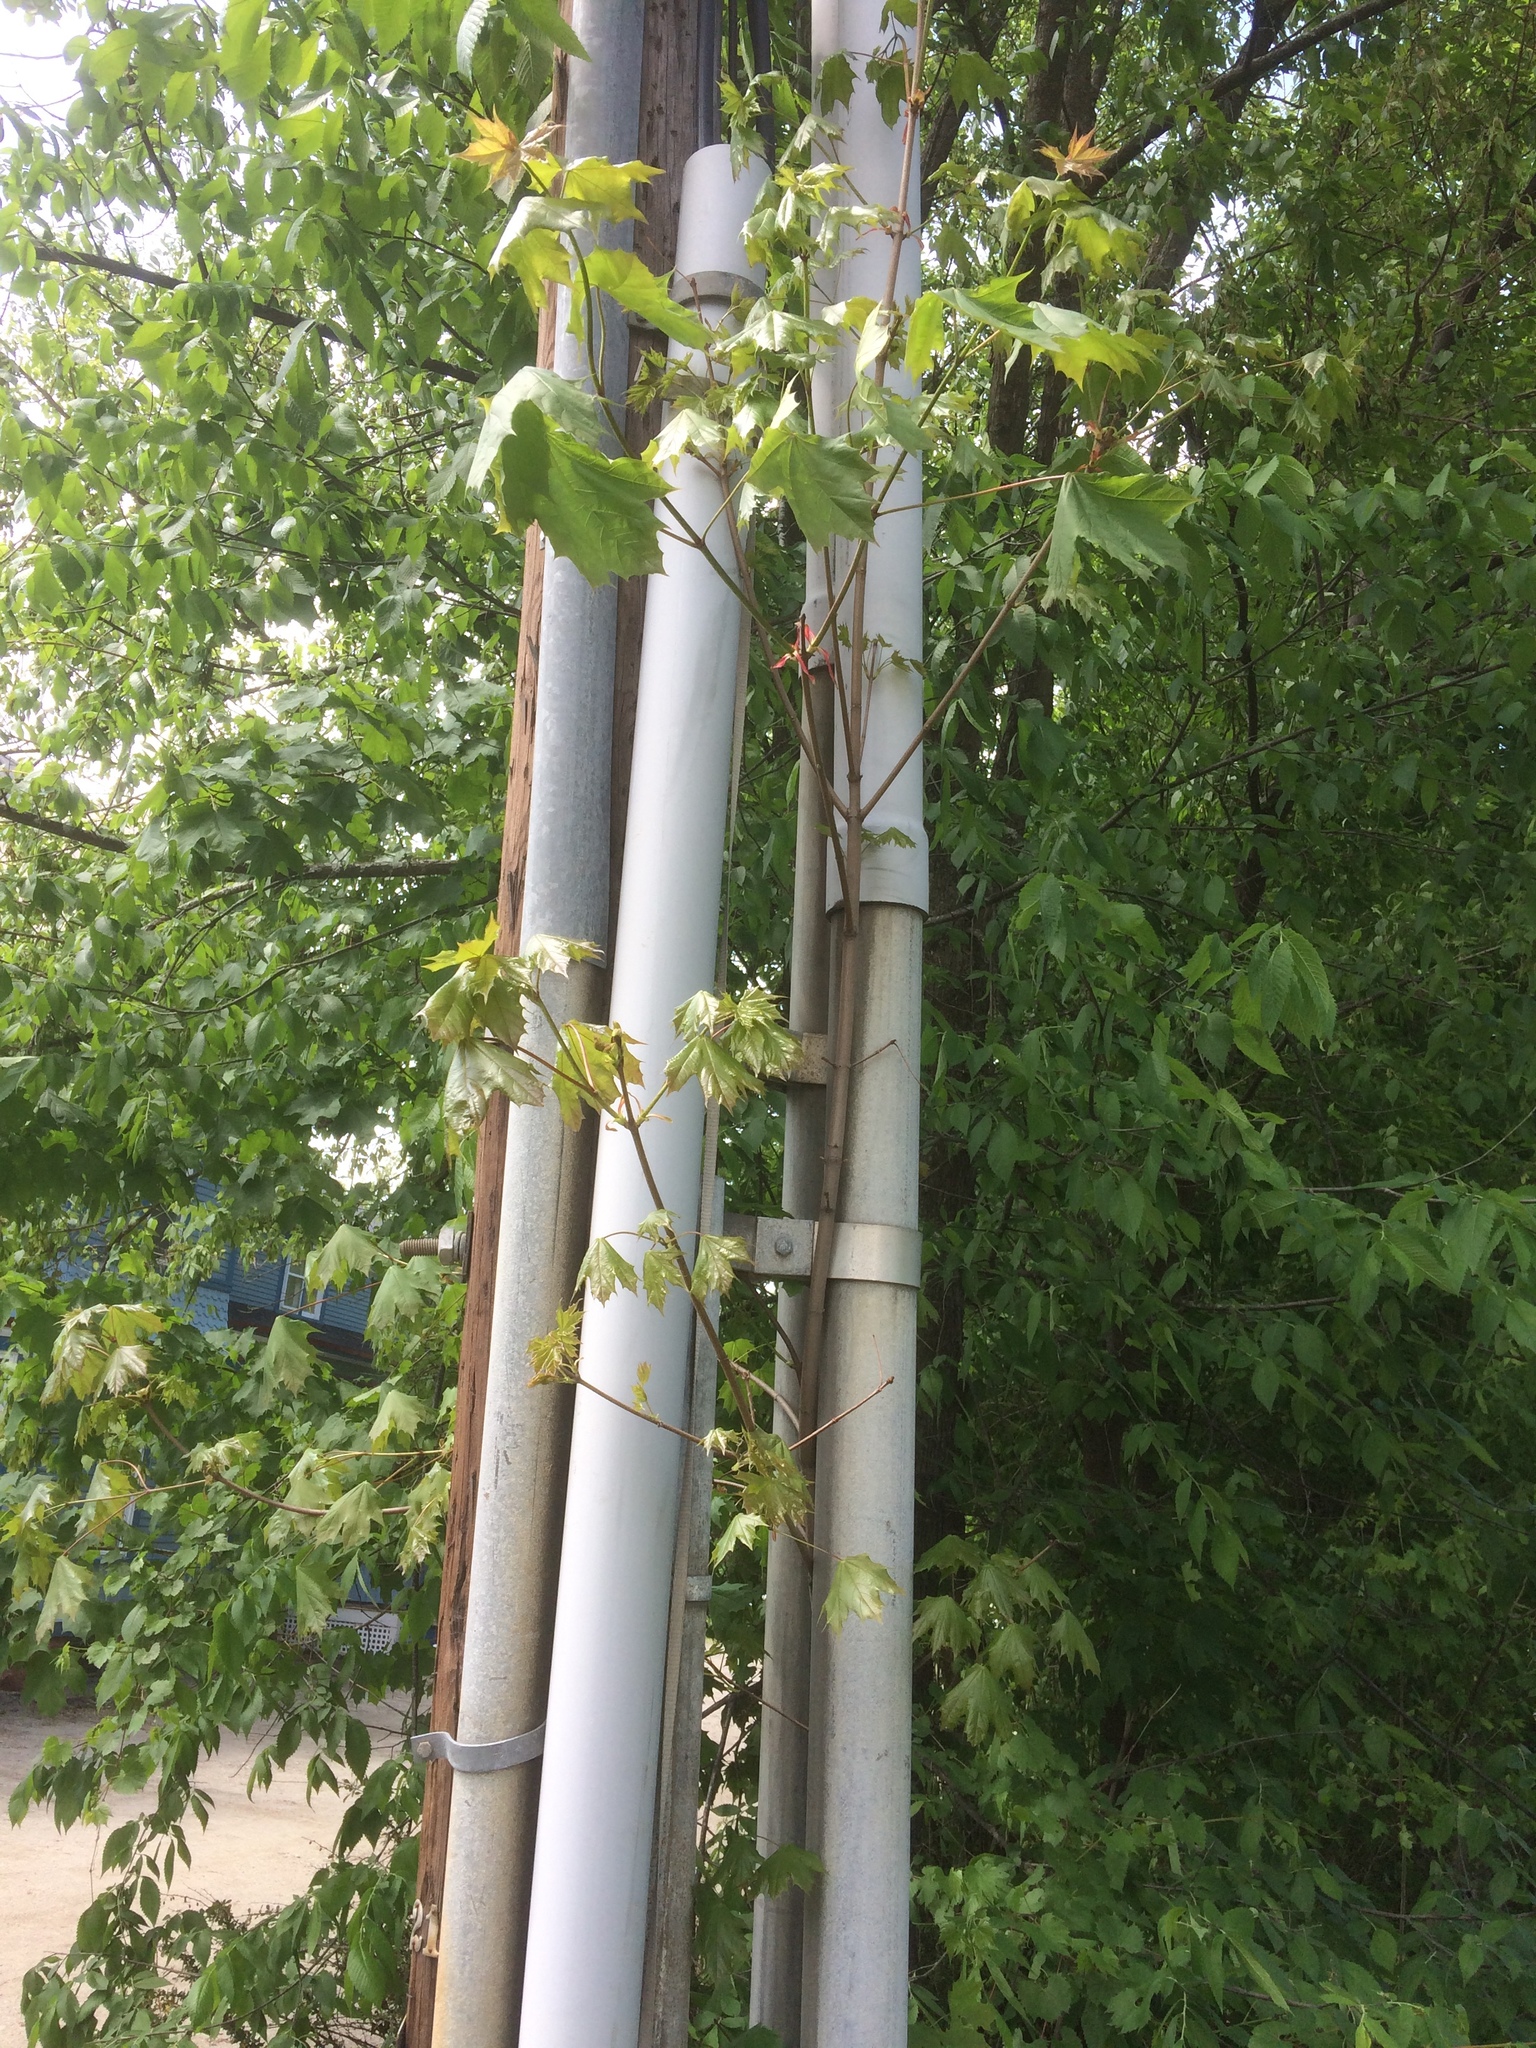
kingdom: Plantae
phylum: Tracheophyta
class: Magnoliopsida
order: Sapindales
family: Sapindaceae
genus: Acer
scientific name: Acer platanoides
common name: Norway maple
